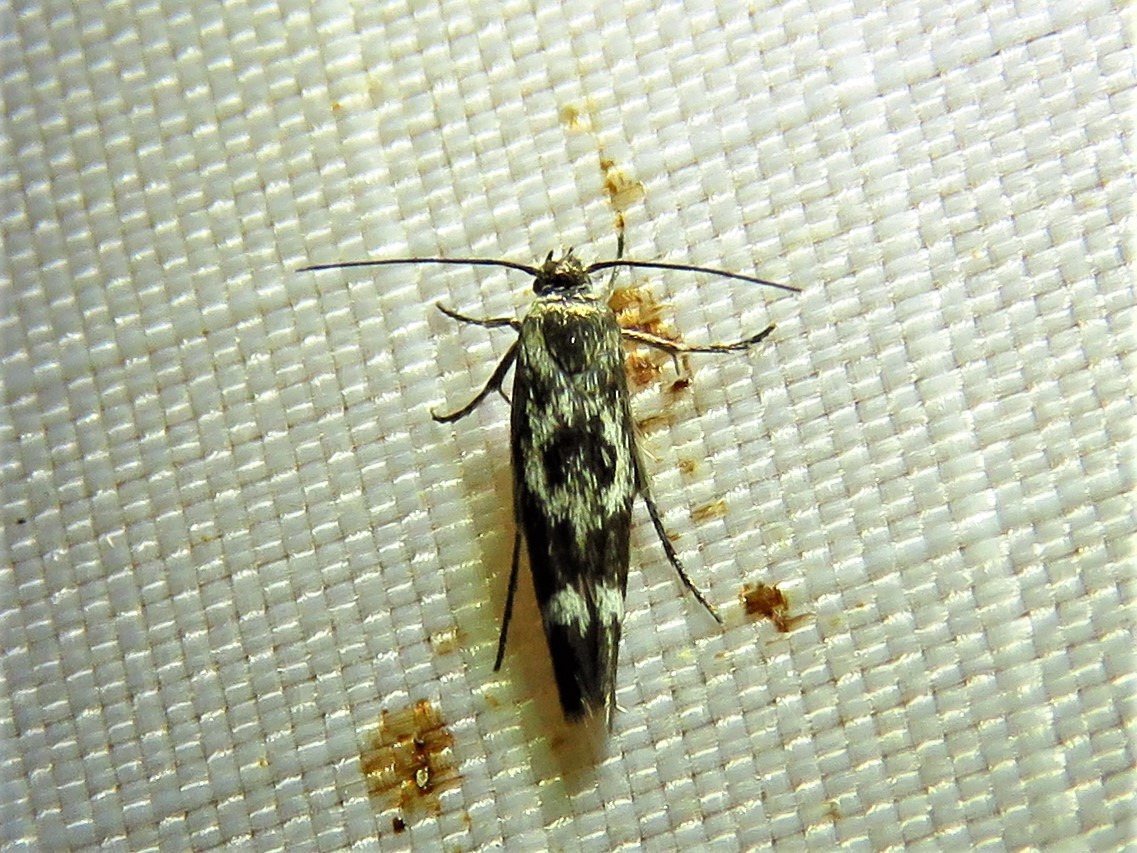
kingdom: Animalia
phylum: Arthropoda
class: Insecta
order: Lepidoptera
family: Scythrididae
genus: Scythris
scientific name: Scythris trivinctella
